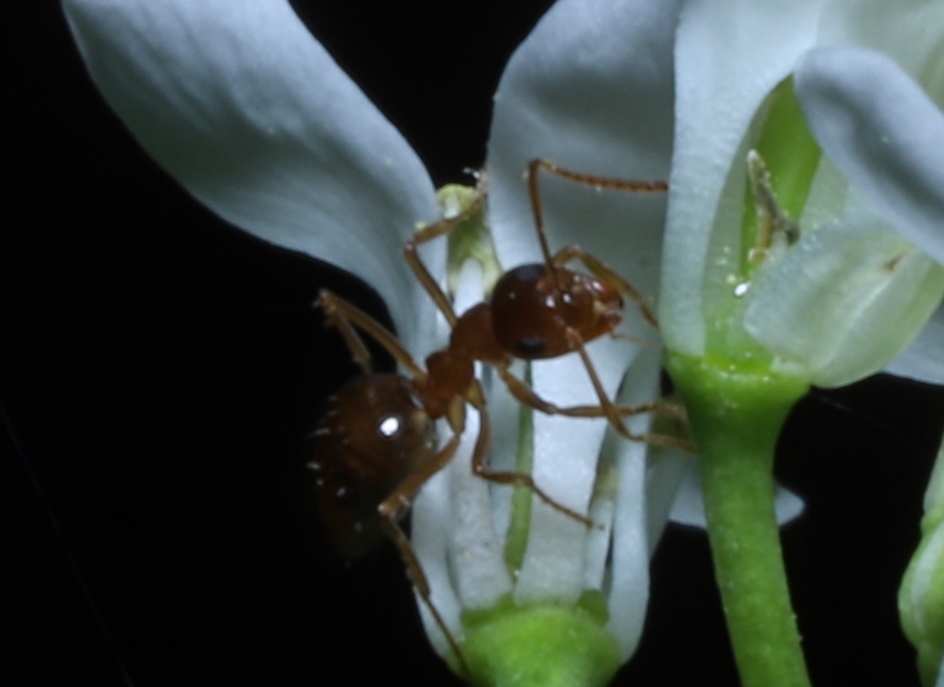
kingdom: Animalia
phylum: Arthropoda
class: Insecta
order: Hymenoptera
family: Formicidae
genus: Prenolepis
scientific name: Prenolepis imparis
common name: Small honey ant
